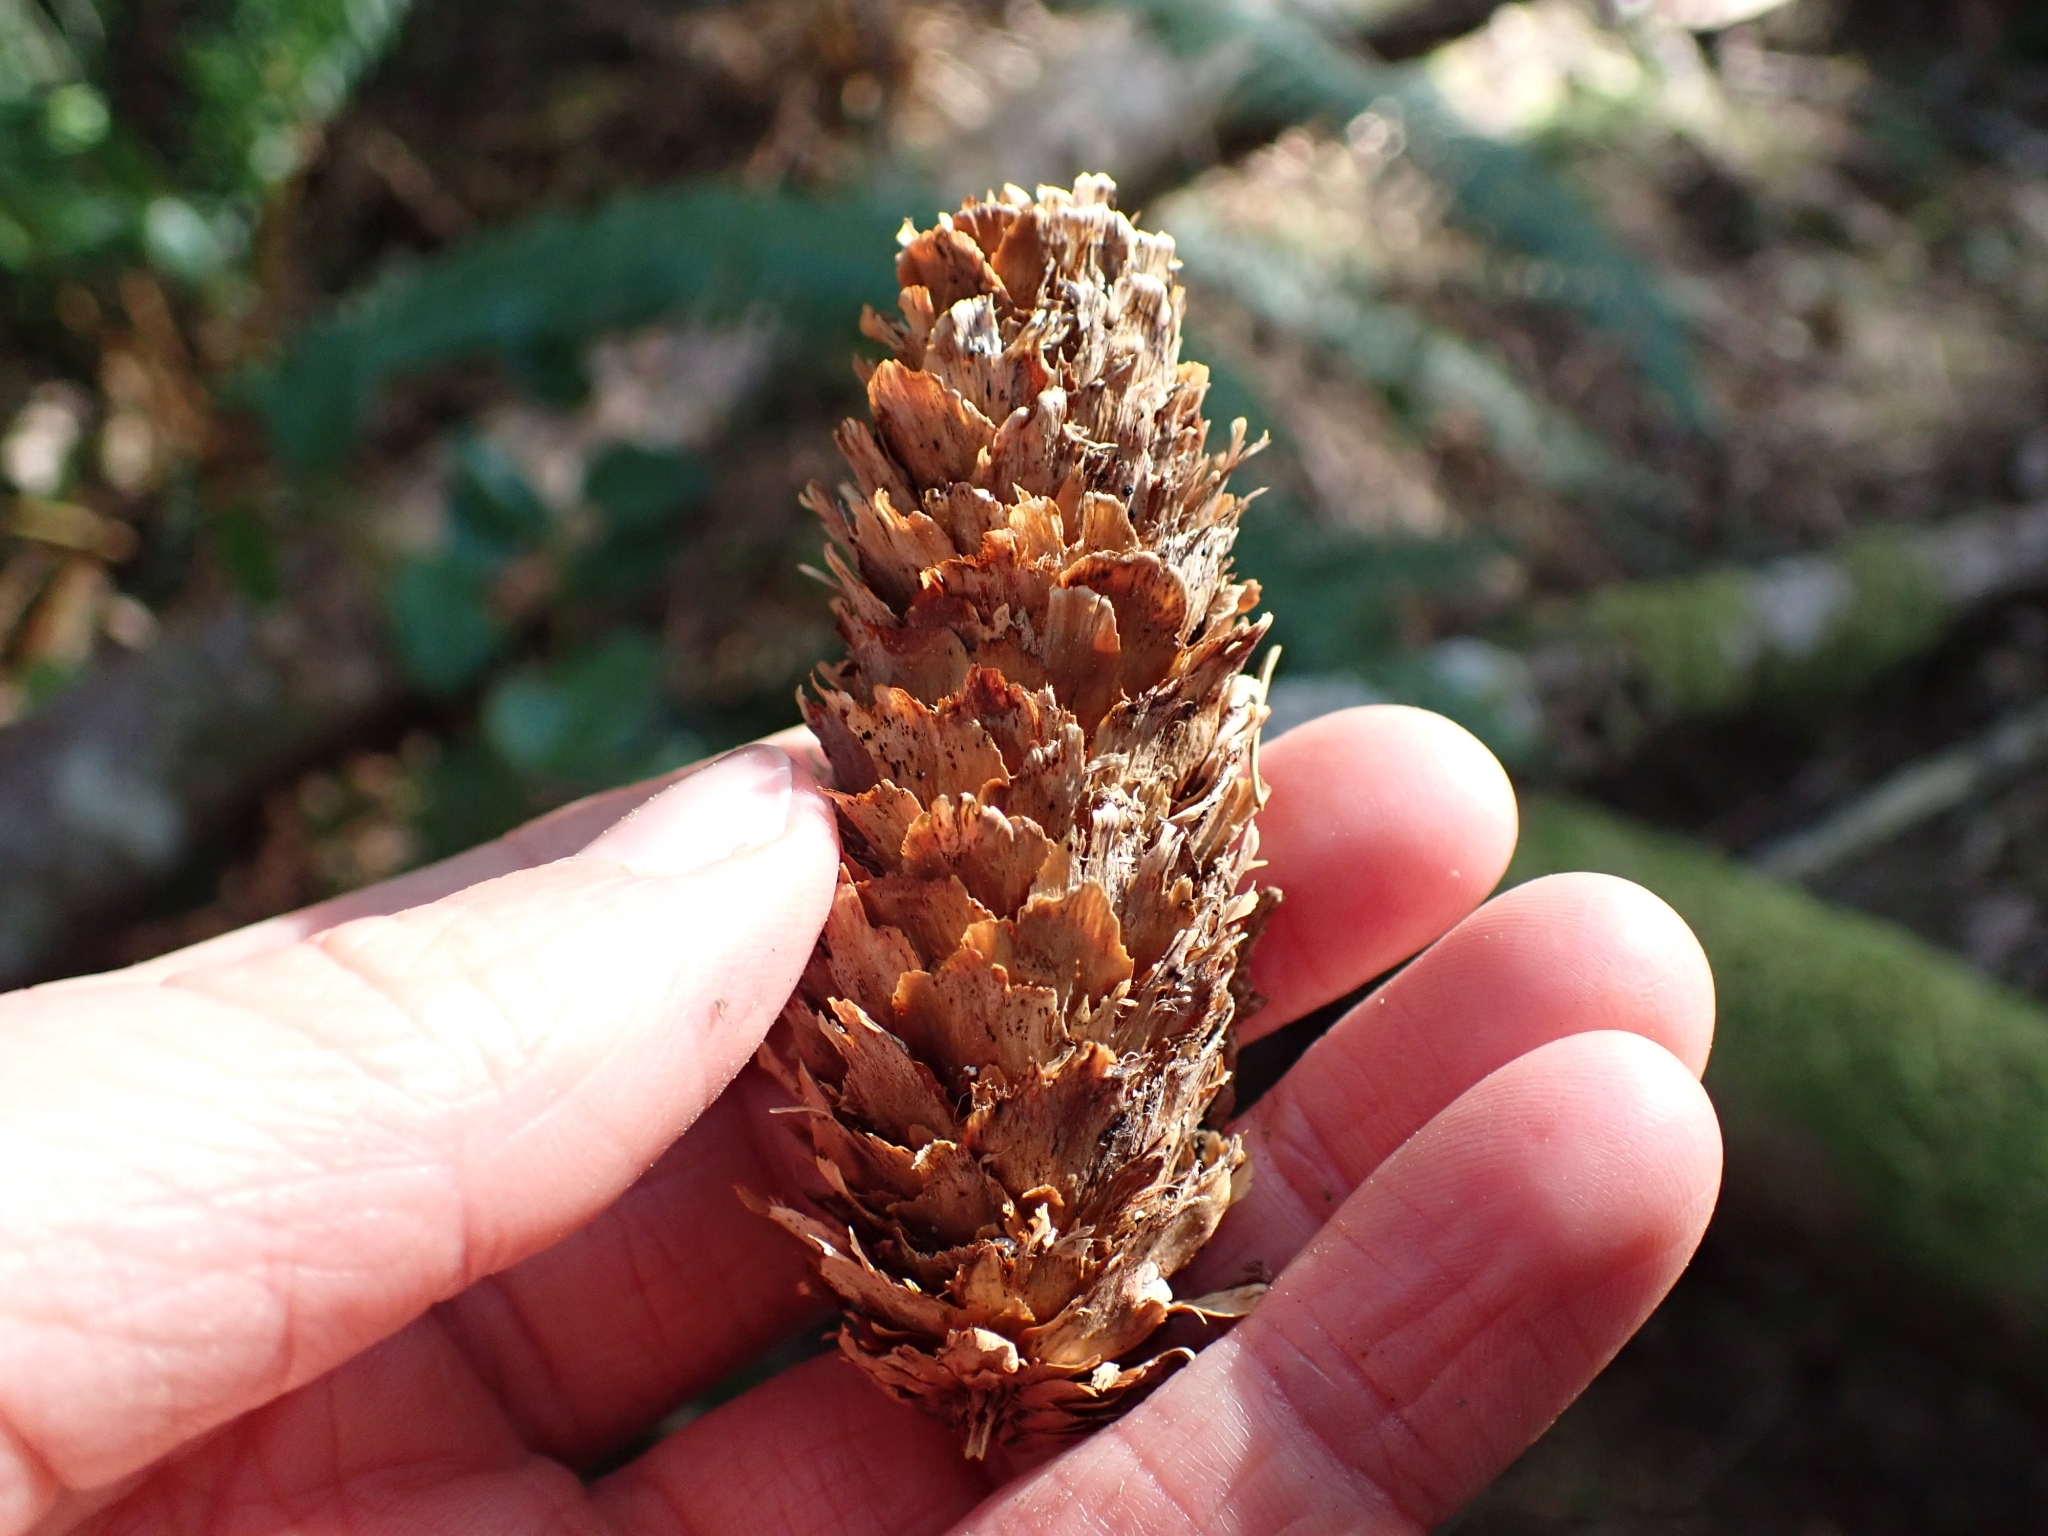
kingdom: Plantae
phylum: Tracheophyta
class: Pinopsida
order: Pinales
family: Pinaceae
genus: Picea
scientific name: Picea sitchensis
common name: Sitka spruce
